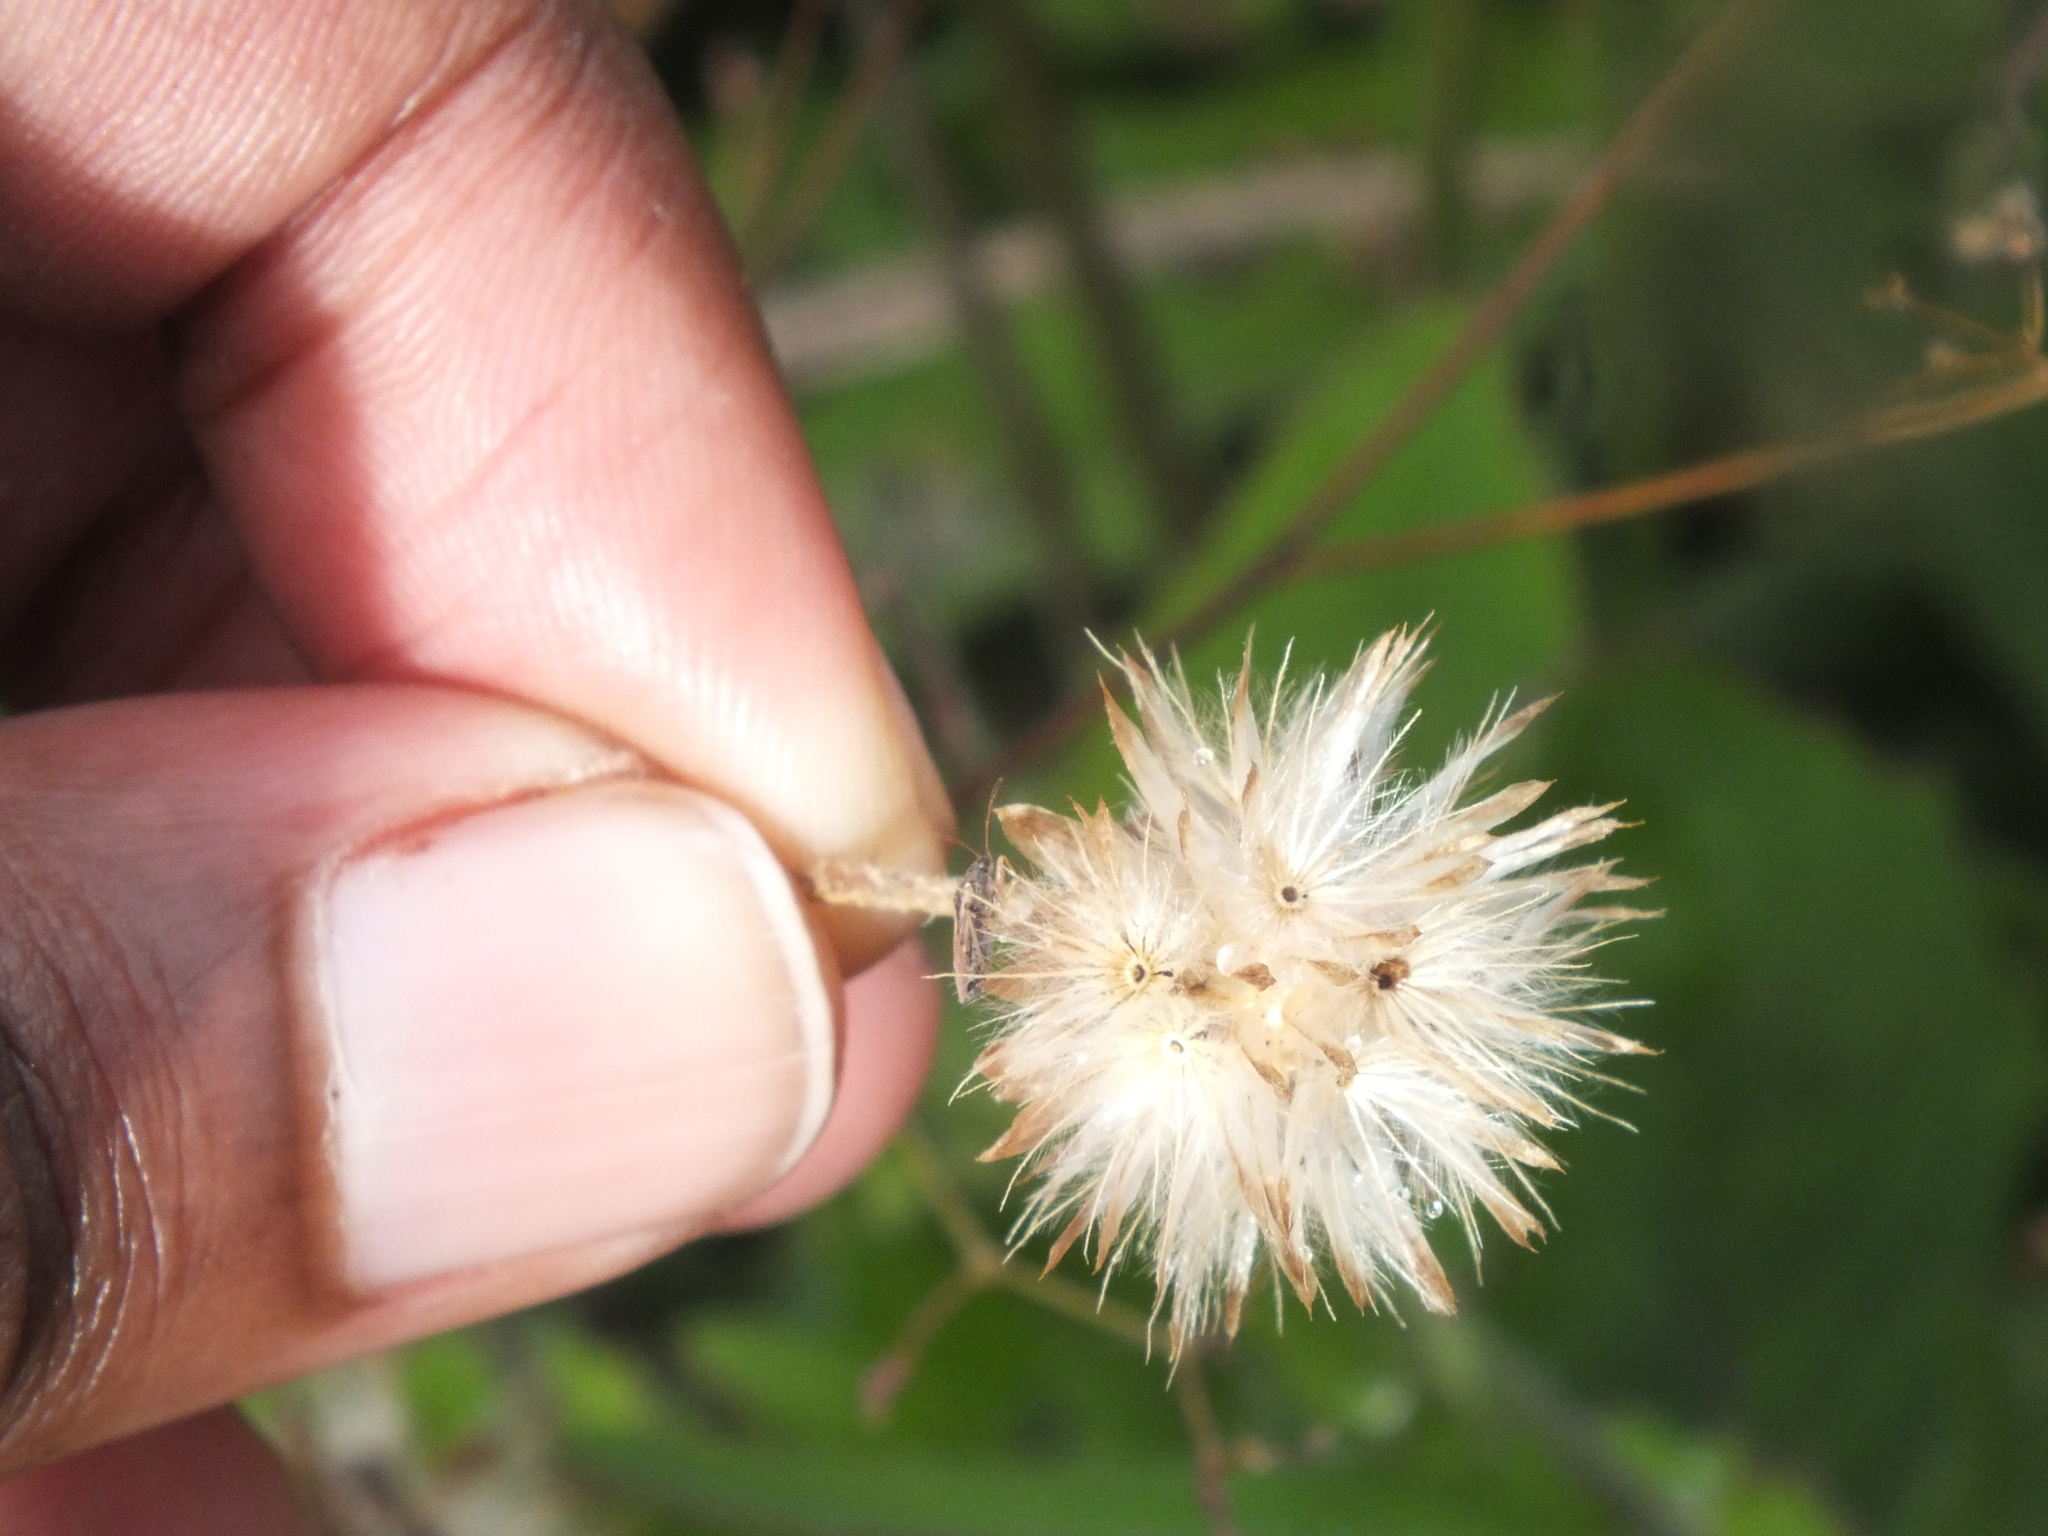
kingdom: Plantae
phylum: Tracheophyta
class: Magnoliopsida
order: Asterales
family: Asteraceae
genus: Tridax
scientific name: Tridax procumbens
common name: Coatbuttons
